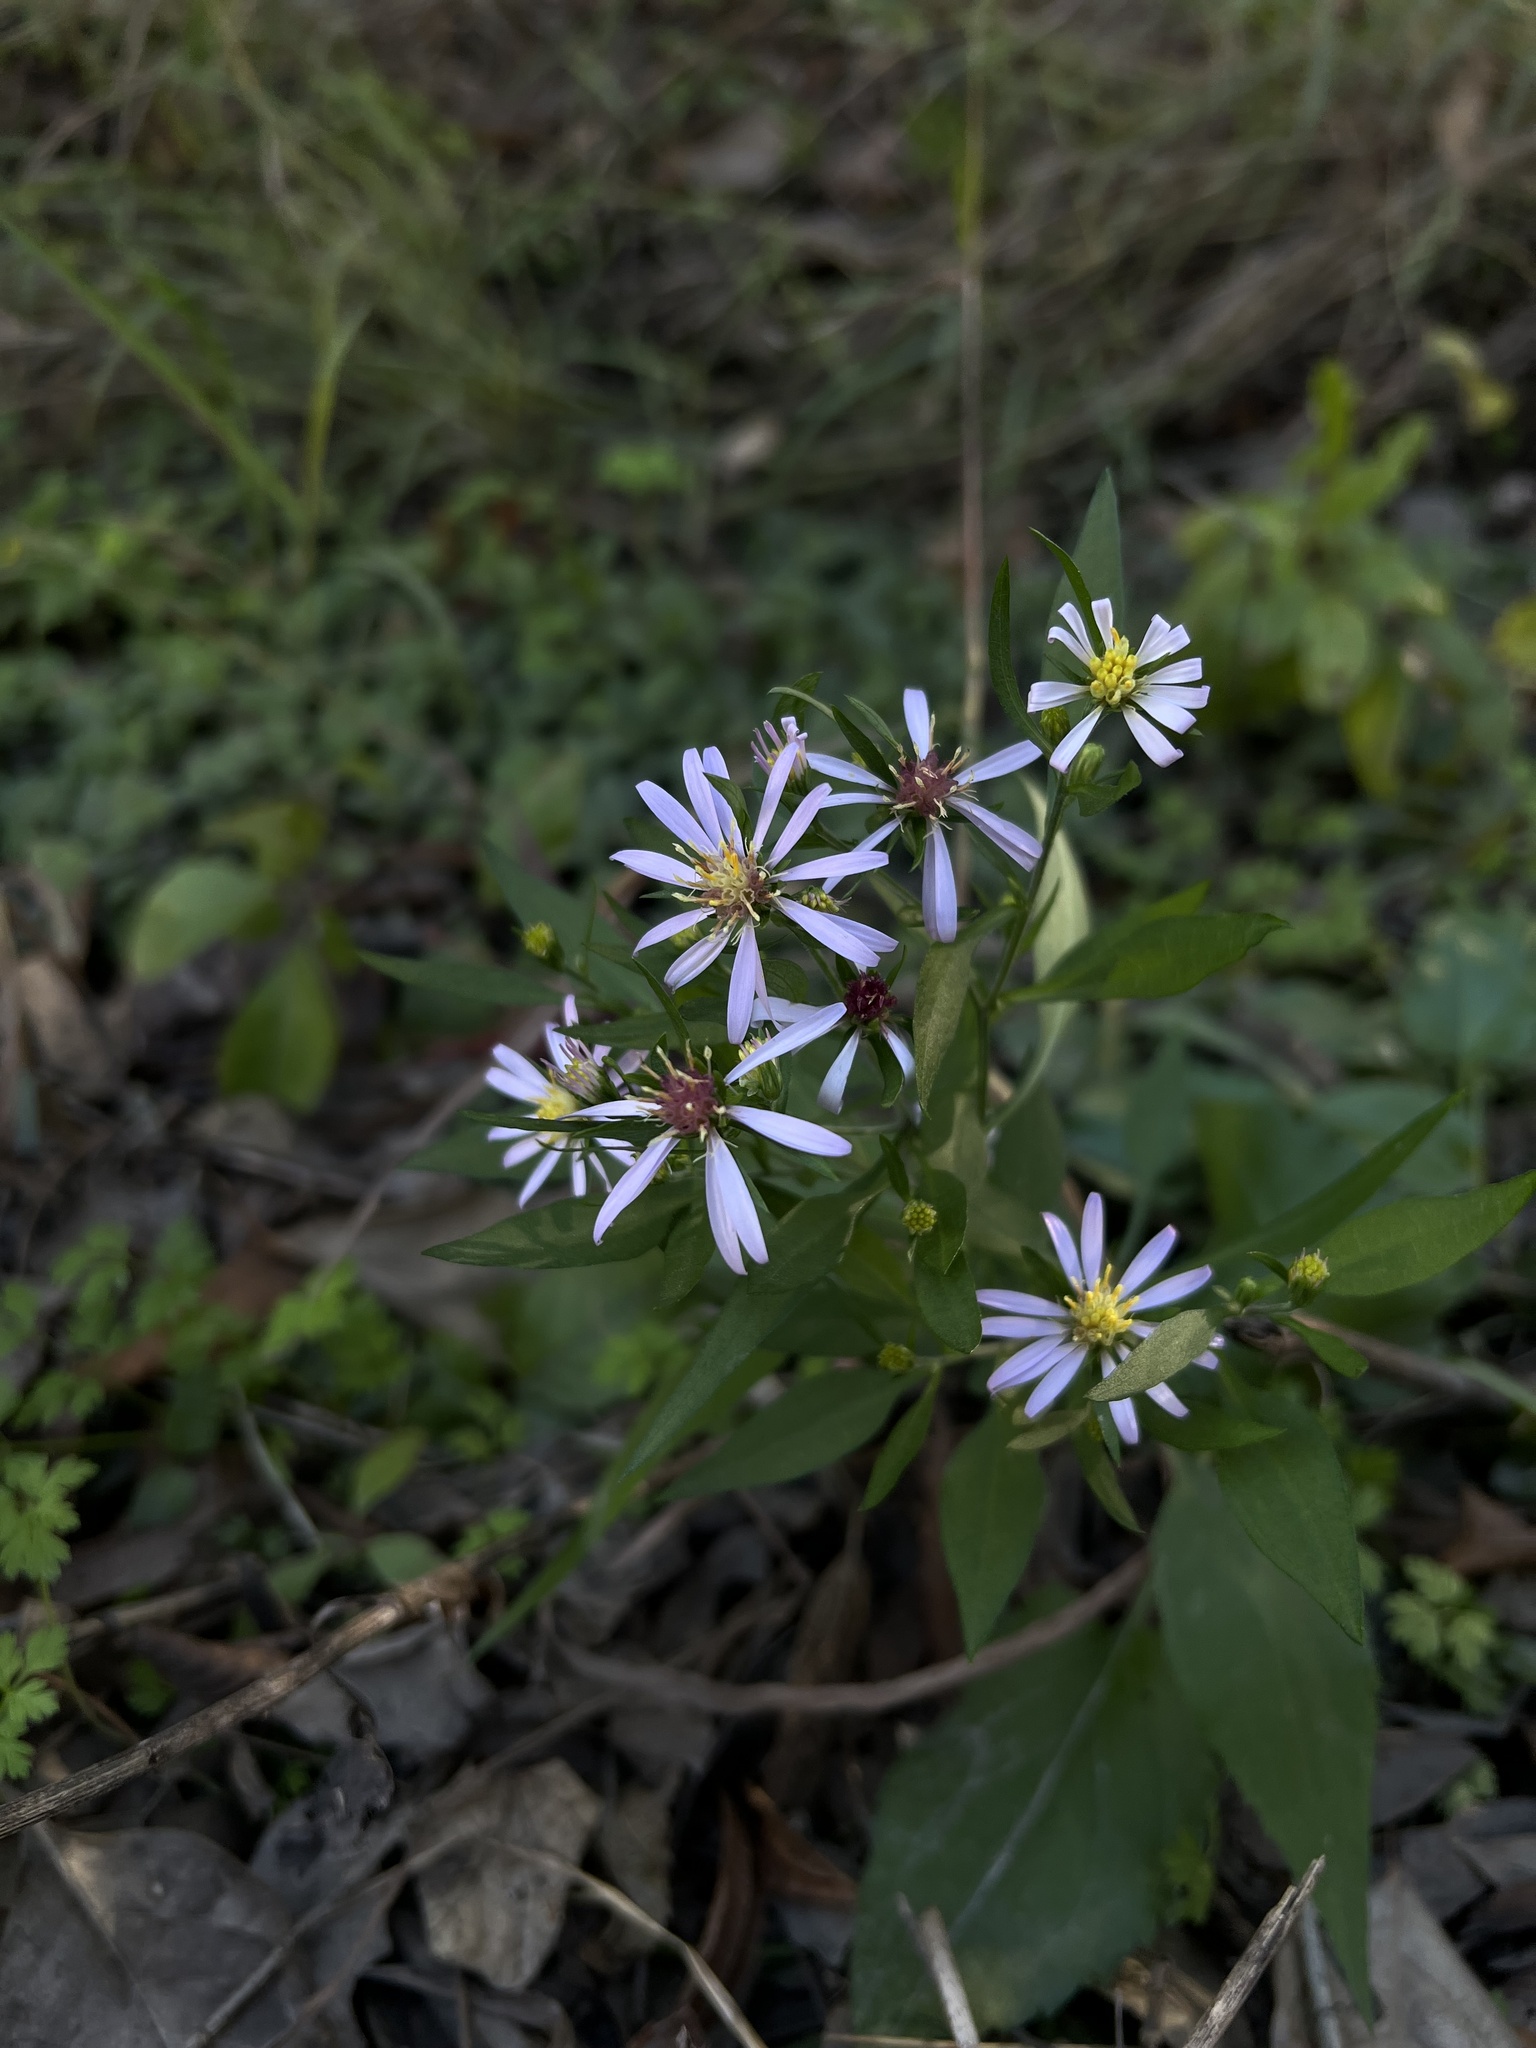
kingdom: Plantae
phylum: Tracheophyta
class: Magnoliopsida
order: Asterales
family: Asteraceae
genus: Symphyotrichum
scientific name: Symphyotrichum drummondii
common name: Drummond's aster
